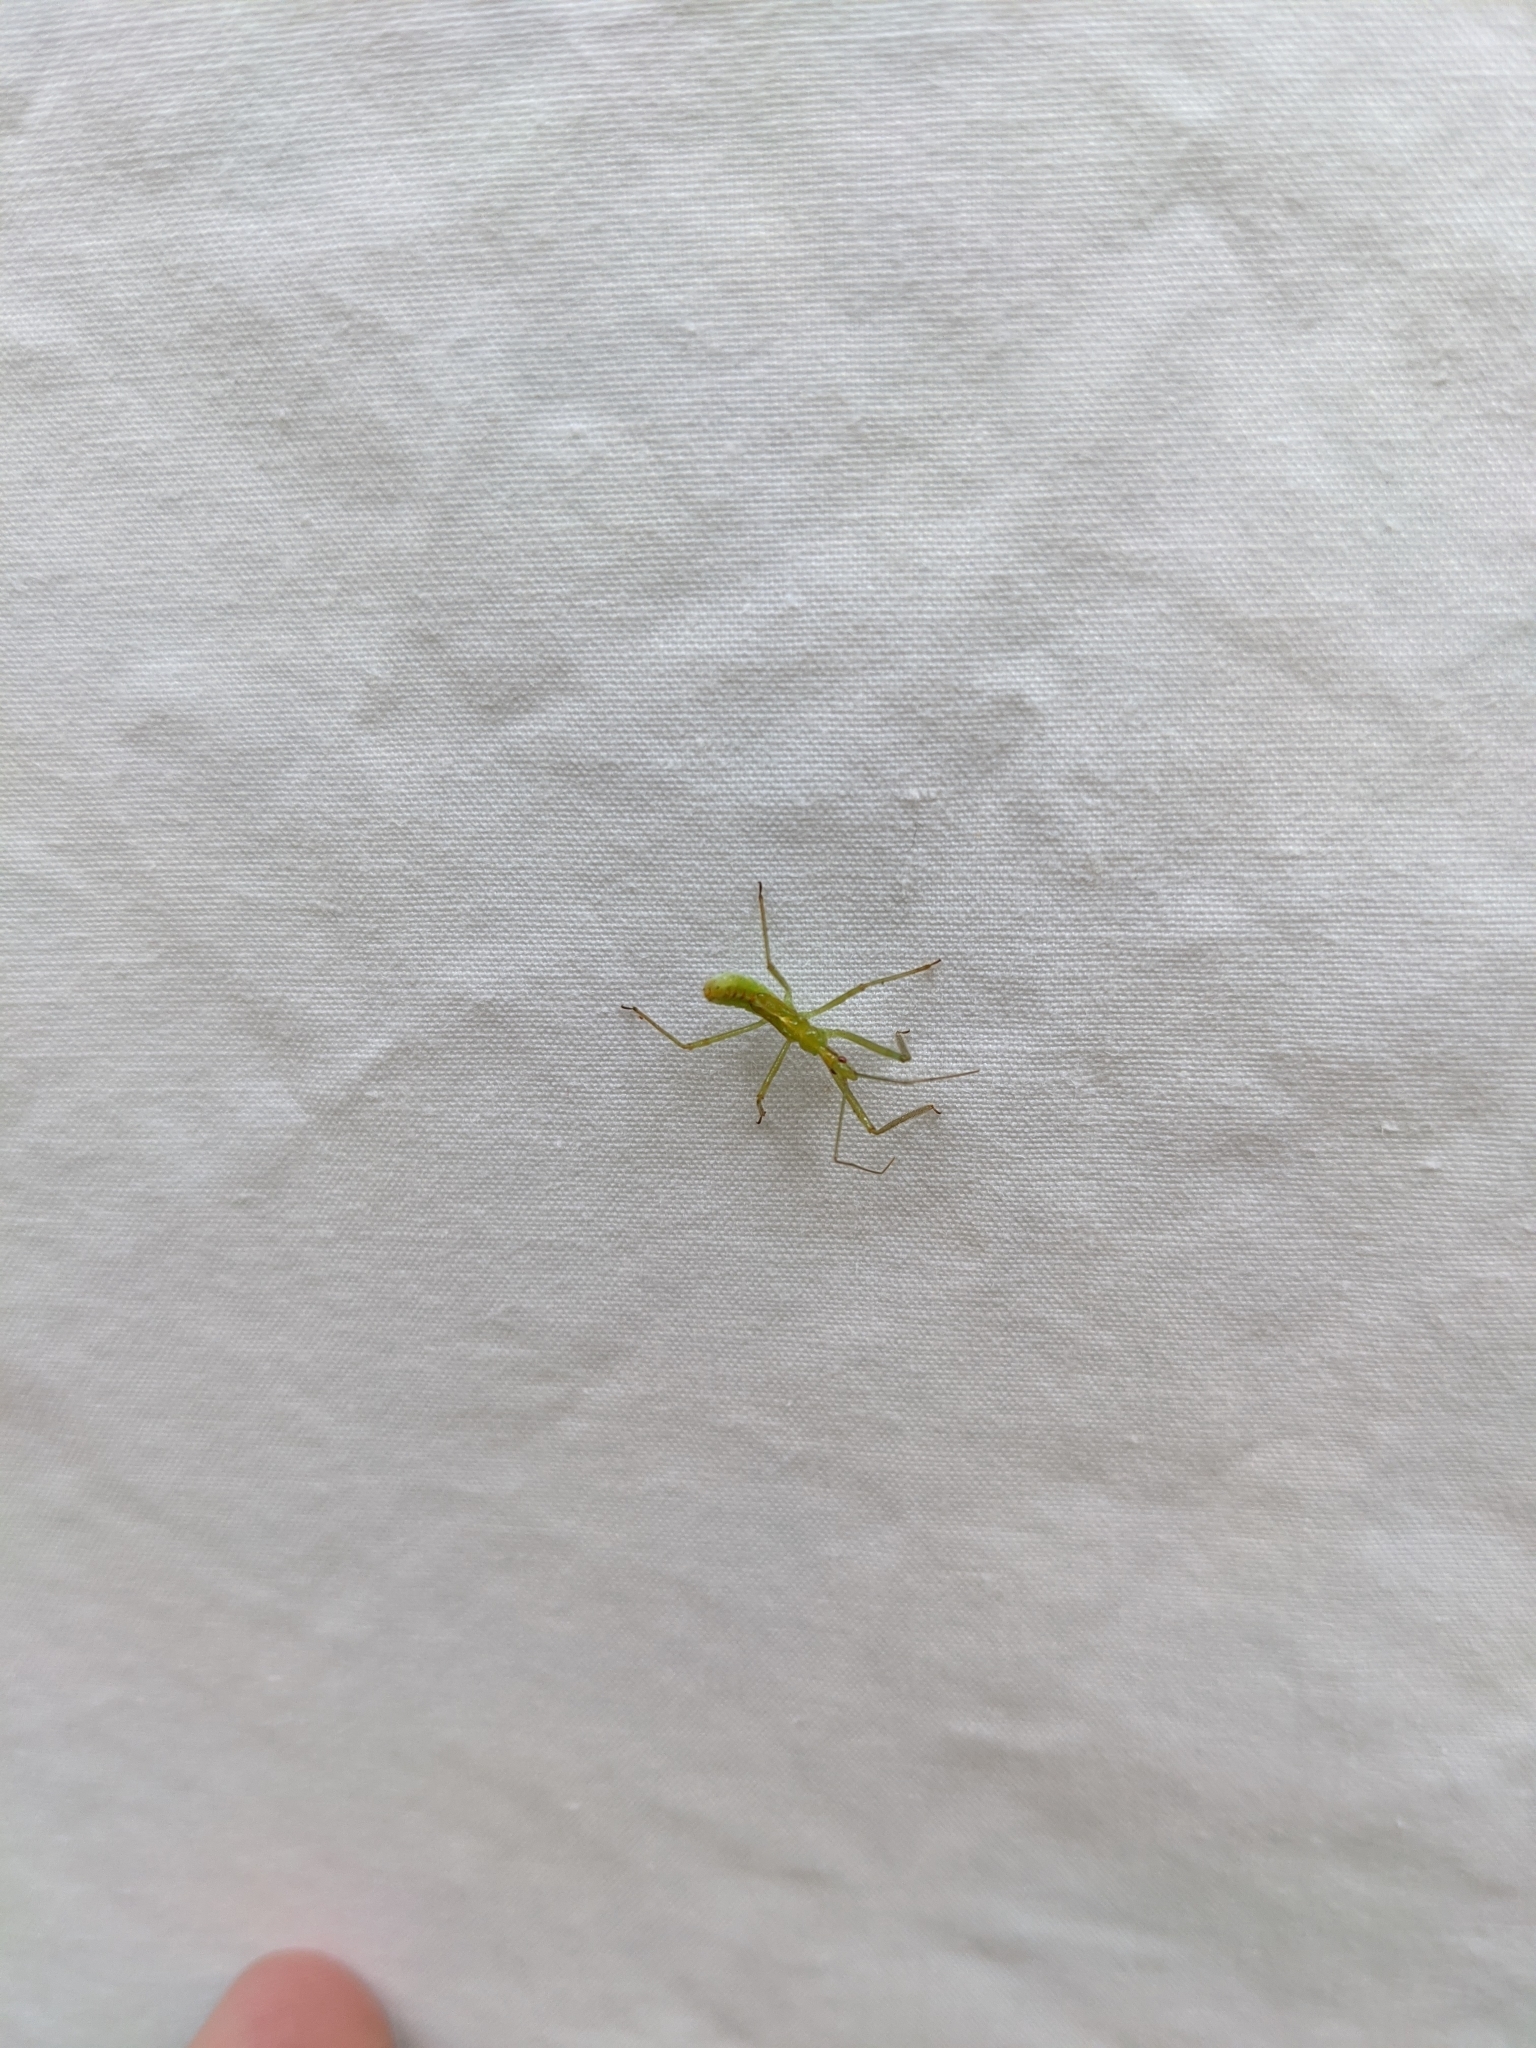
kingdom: Animalia
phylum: Arthropoda
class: Insecta
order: Hemiptera
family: Reduviidae
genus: Zelus
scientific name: Zelus luridus
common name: Pale green assassin bug
